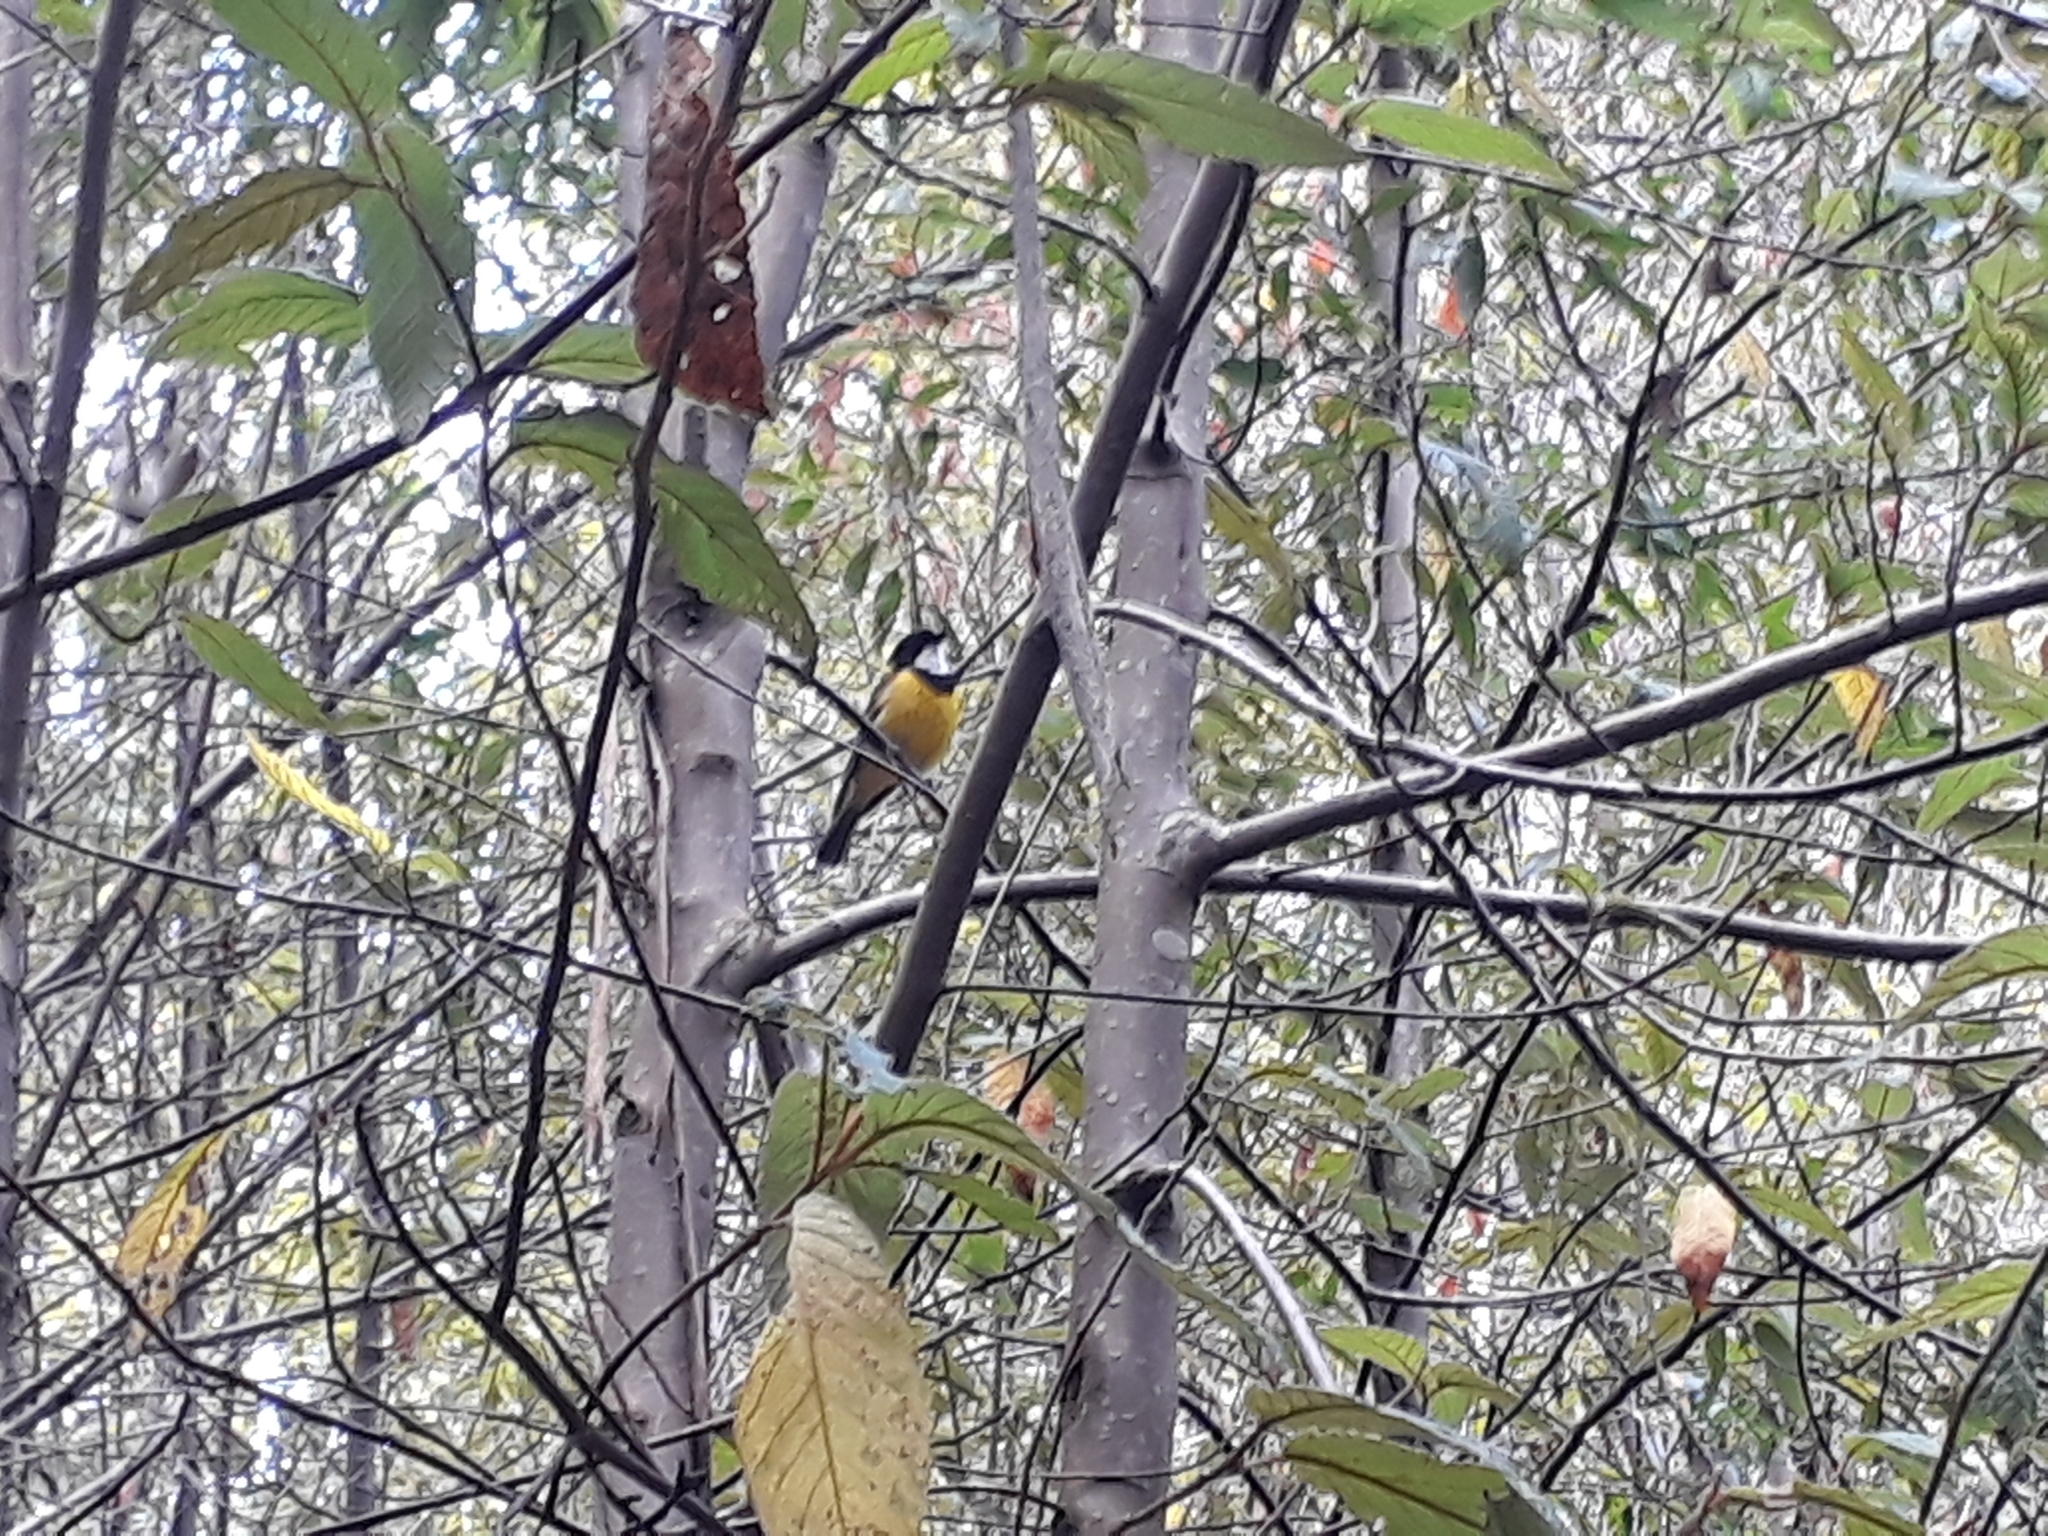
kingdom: Animalia
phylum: Chordata
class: Aves
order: Passeriformes
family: Pachycephalidae
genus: Pachycephala
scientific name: Pachycephala pectoralis
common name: Australian golden whistler
